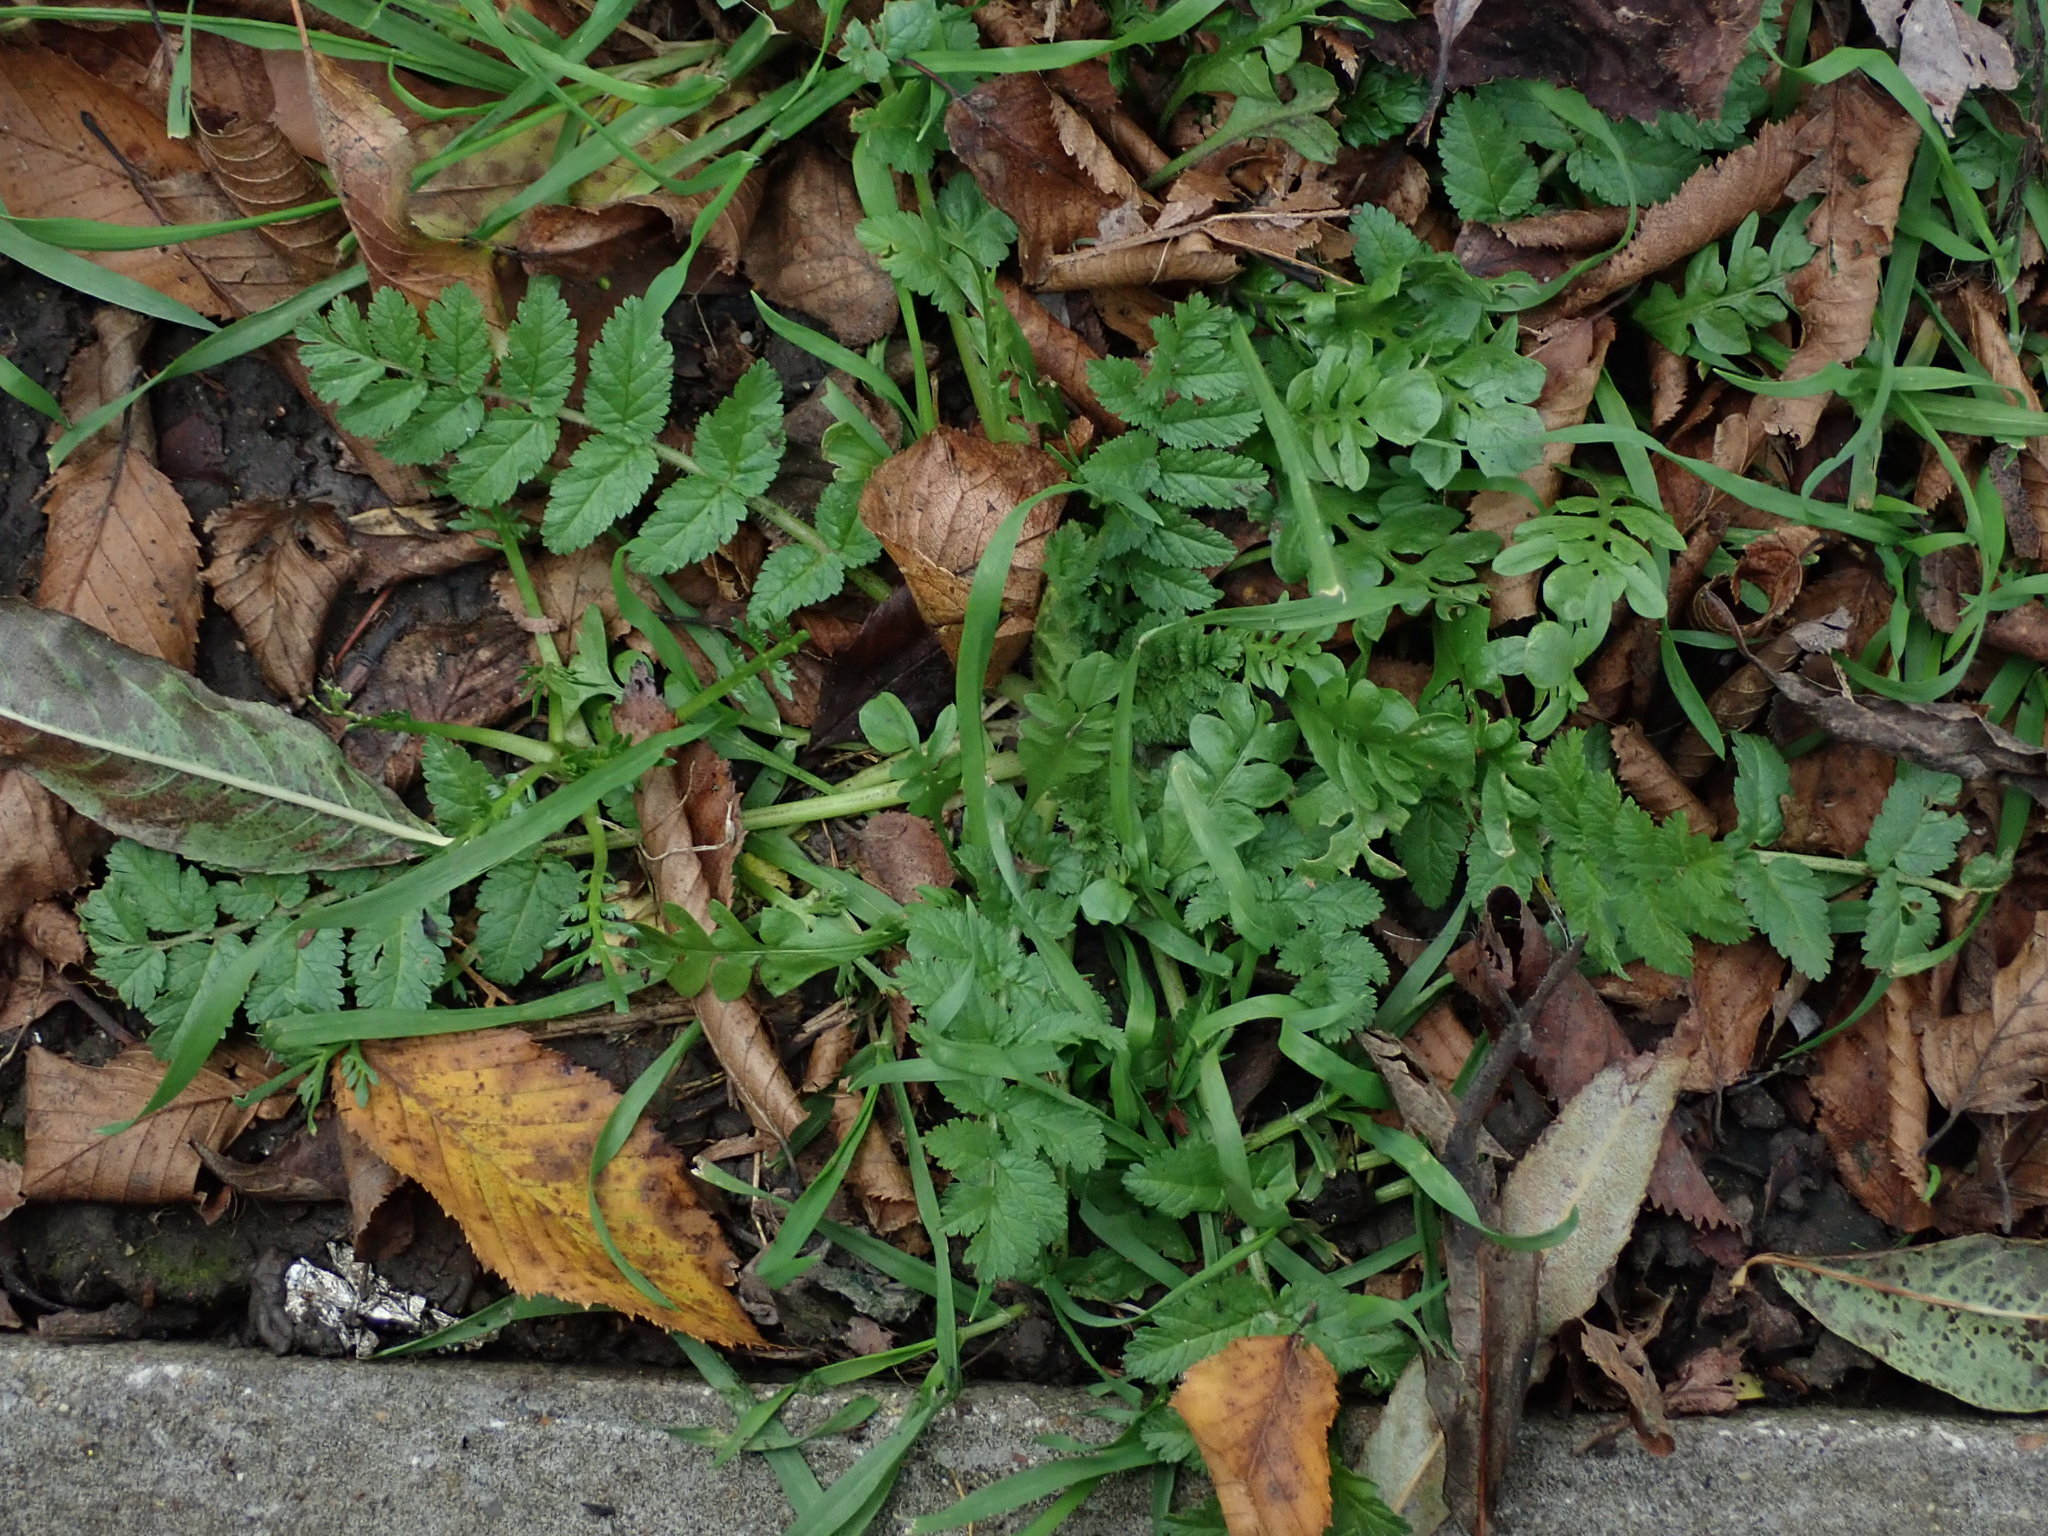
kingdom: Plantae
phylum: Tracheophyta
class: Magnoliopsida
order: Geraniales
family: Geraniaceae
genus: Erodium
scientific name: Erodium moschatum
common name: Musk stork's-bill
